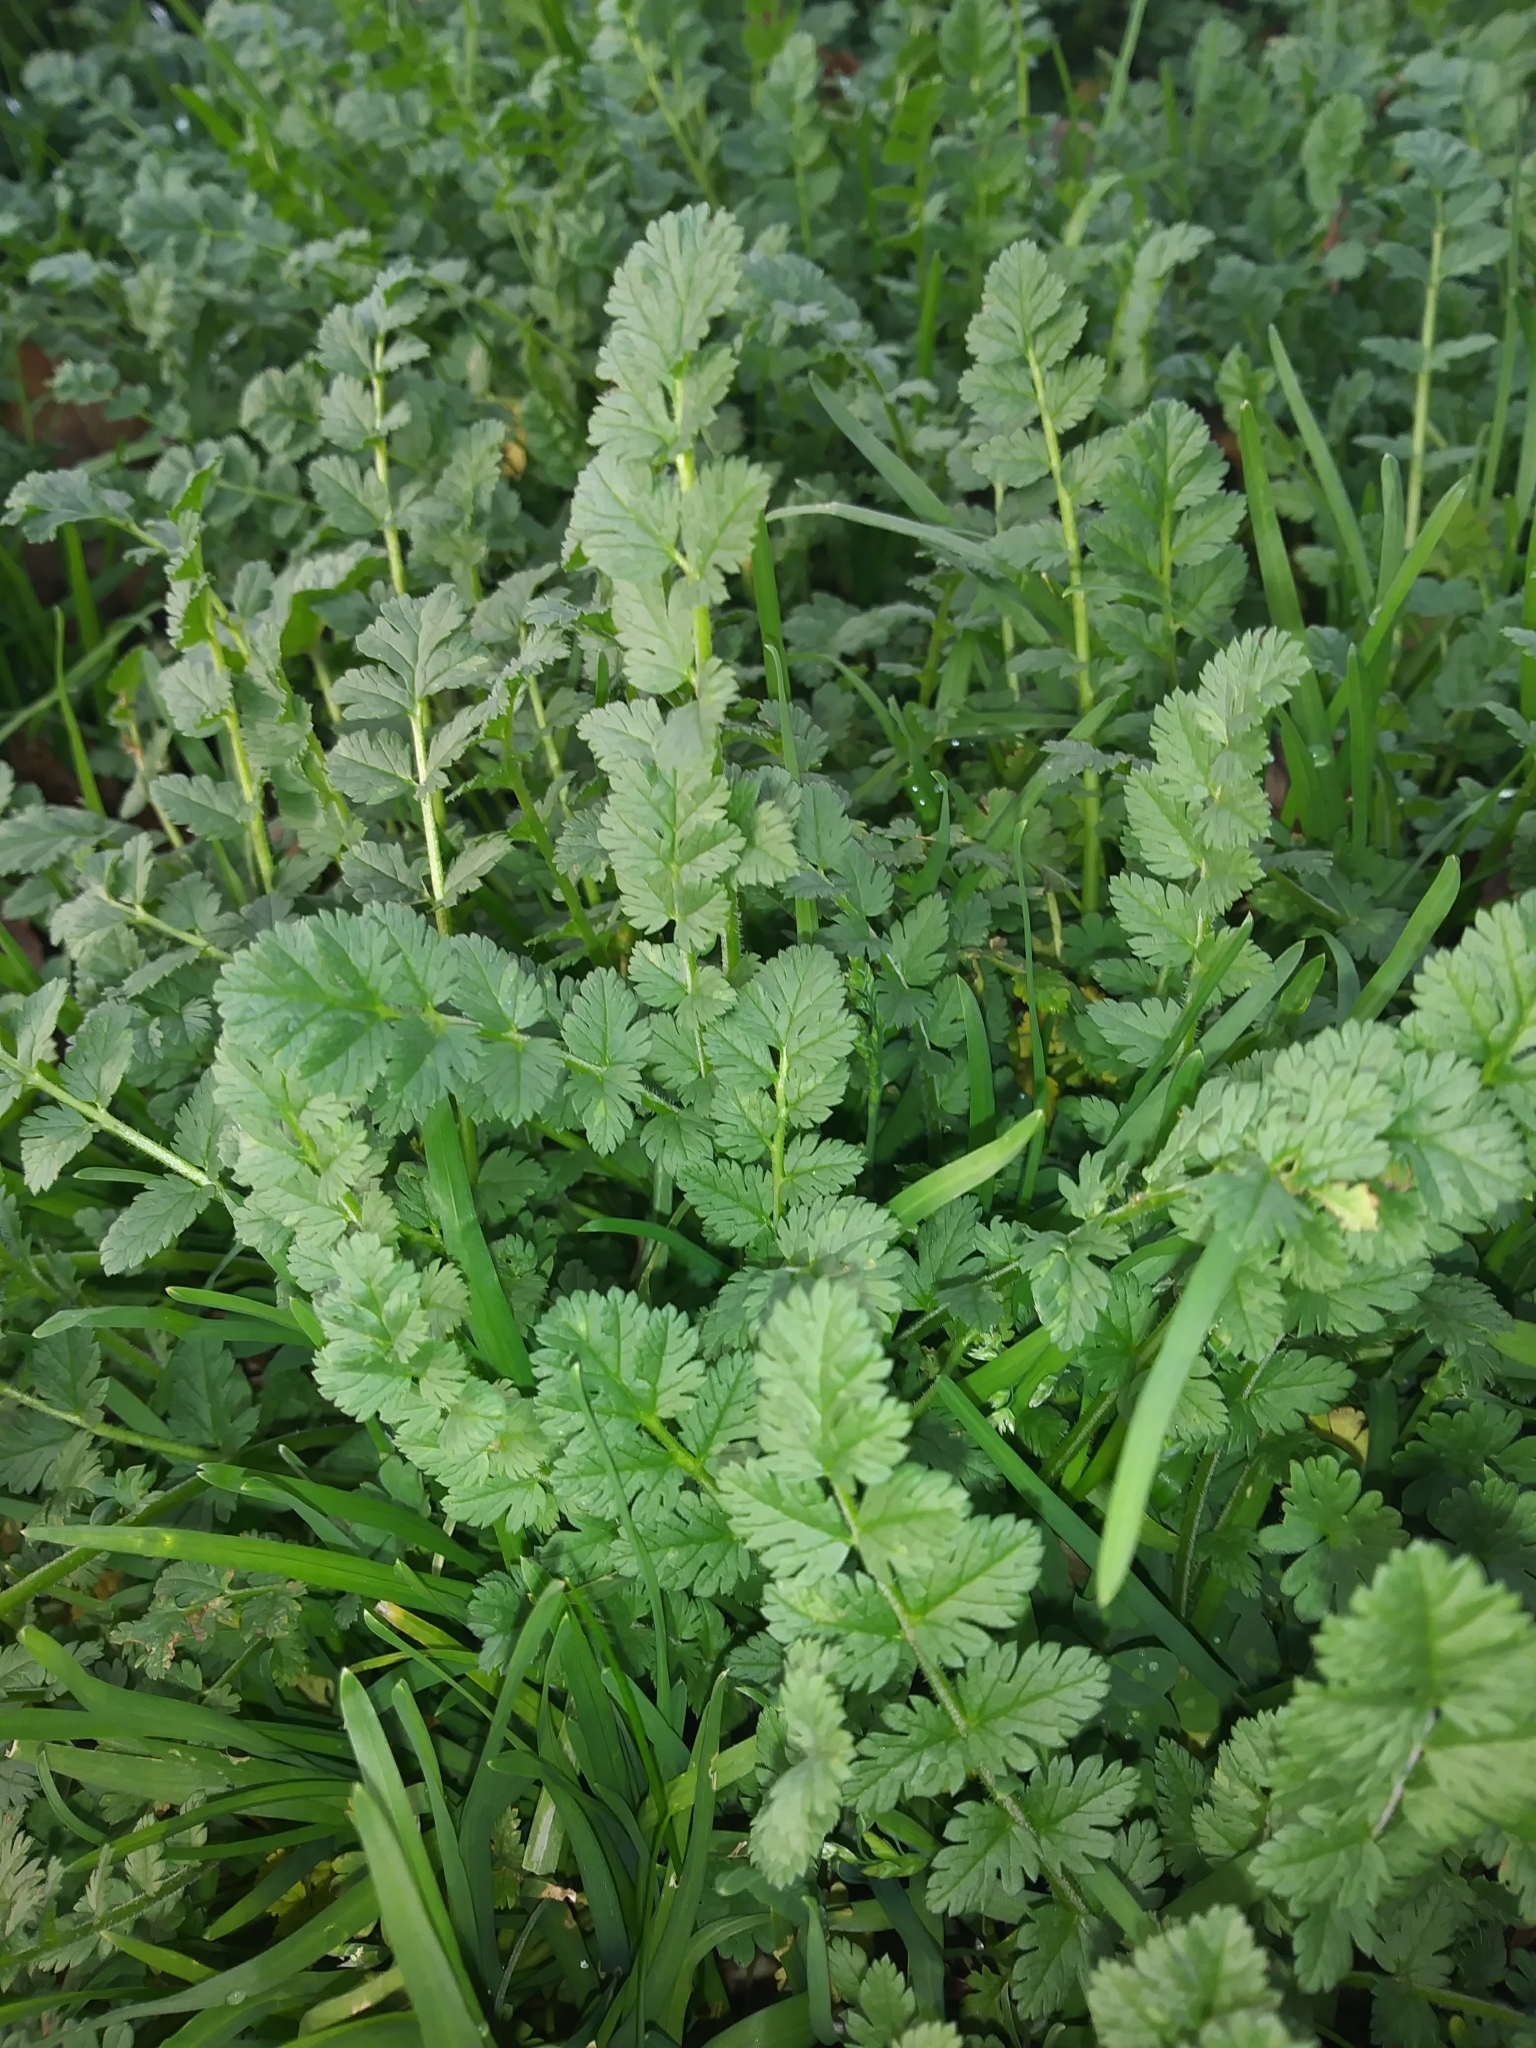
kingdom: Plantae
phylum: Tracheophyta
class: Magnoliopsida
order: Geraniales
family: Geraniaceae
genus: Erodium
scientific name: Erodium moschatum
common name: Musk stork's-bill
